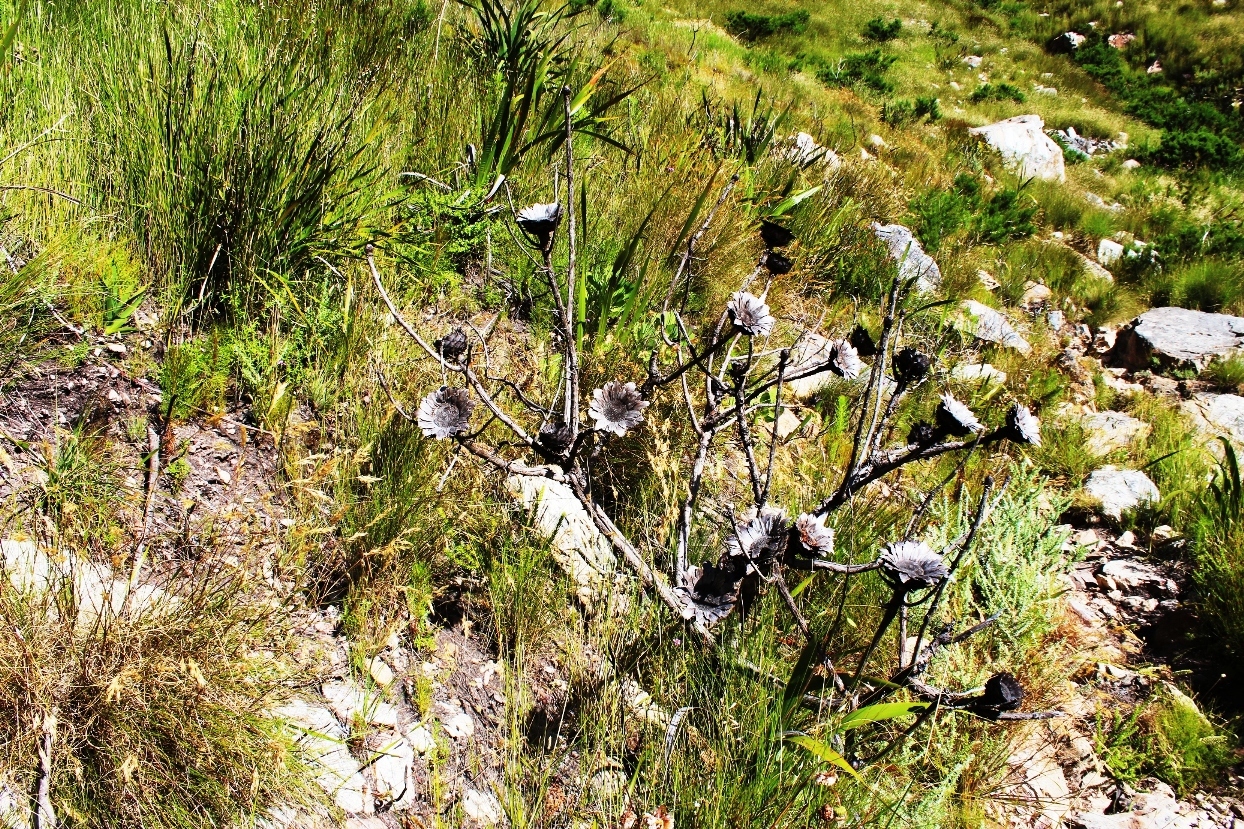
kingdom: Plantae
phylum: Tracheophyta
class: Magnoliopsida
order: Proteales
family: Proteaceae
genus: Protea
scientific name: Protea grandiceps
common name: Red sugarbush
